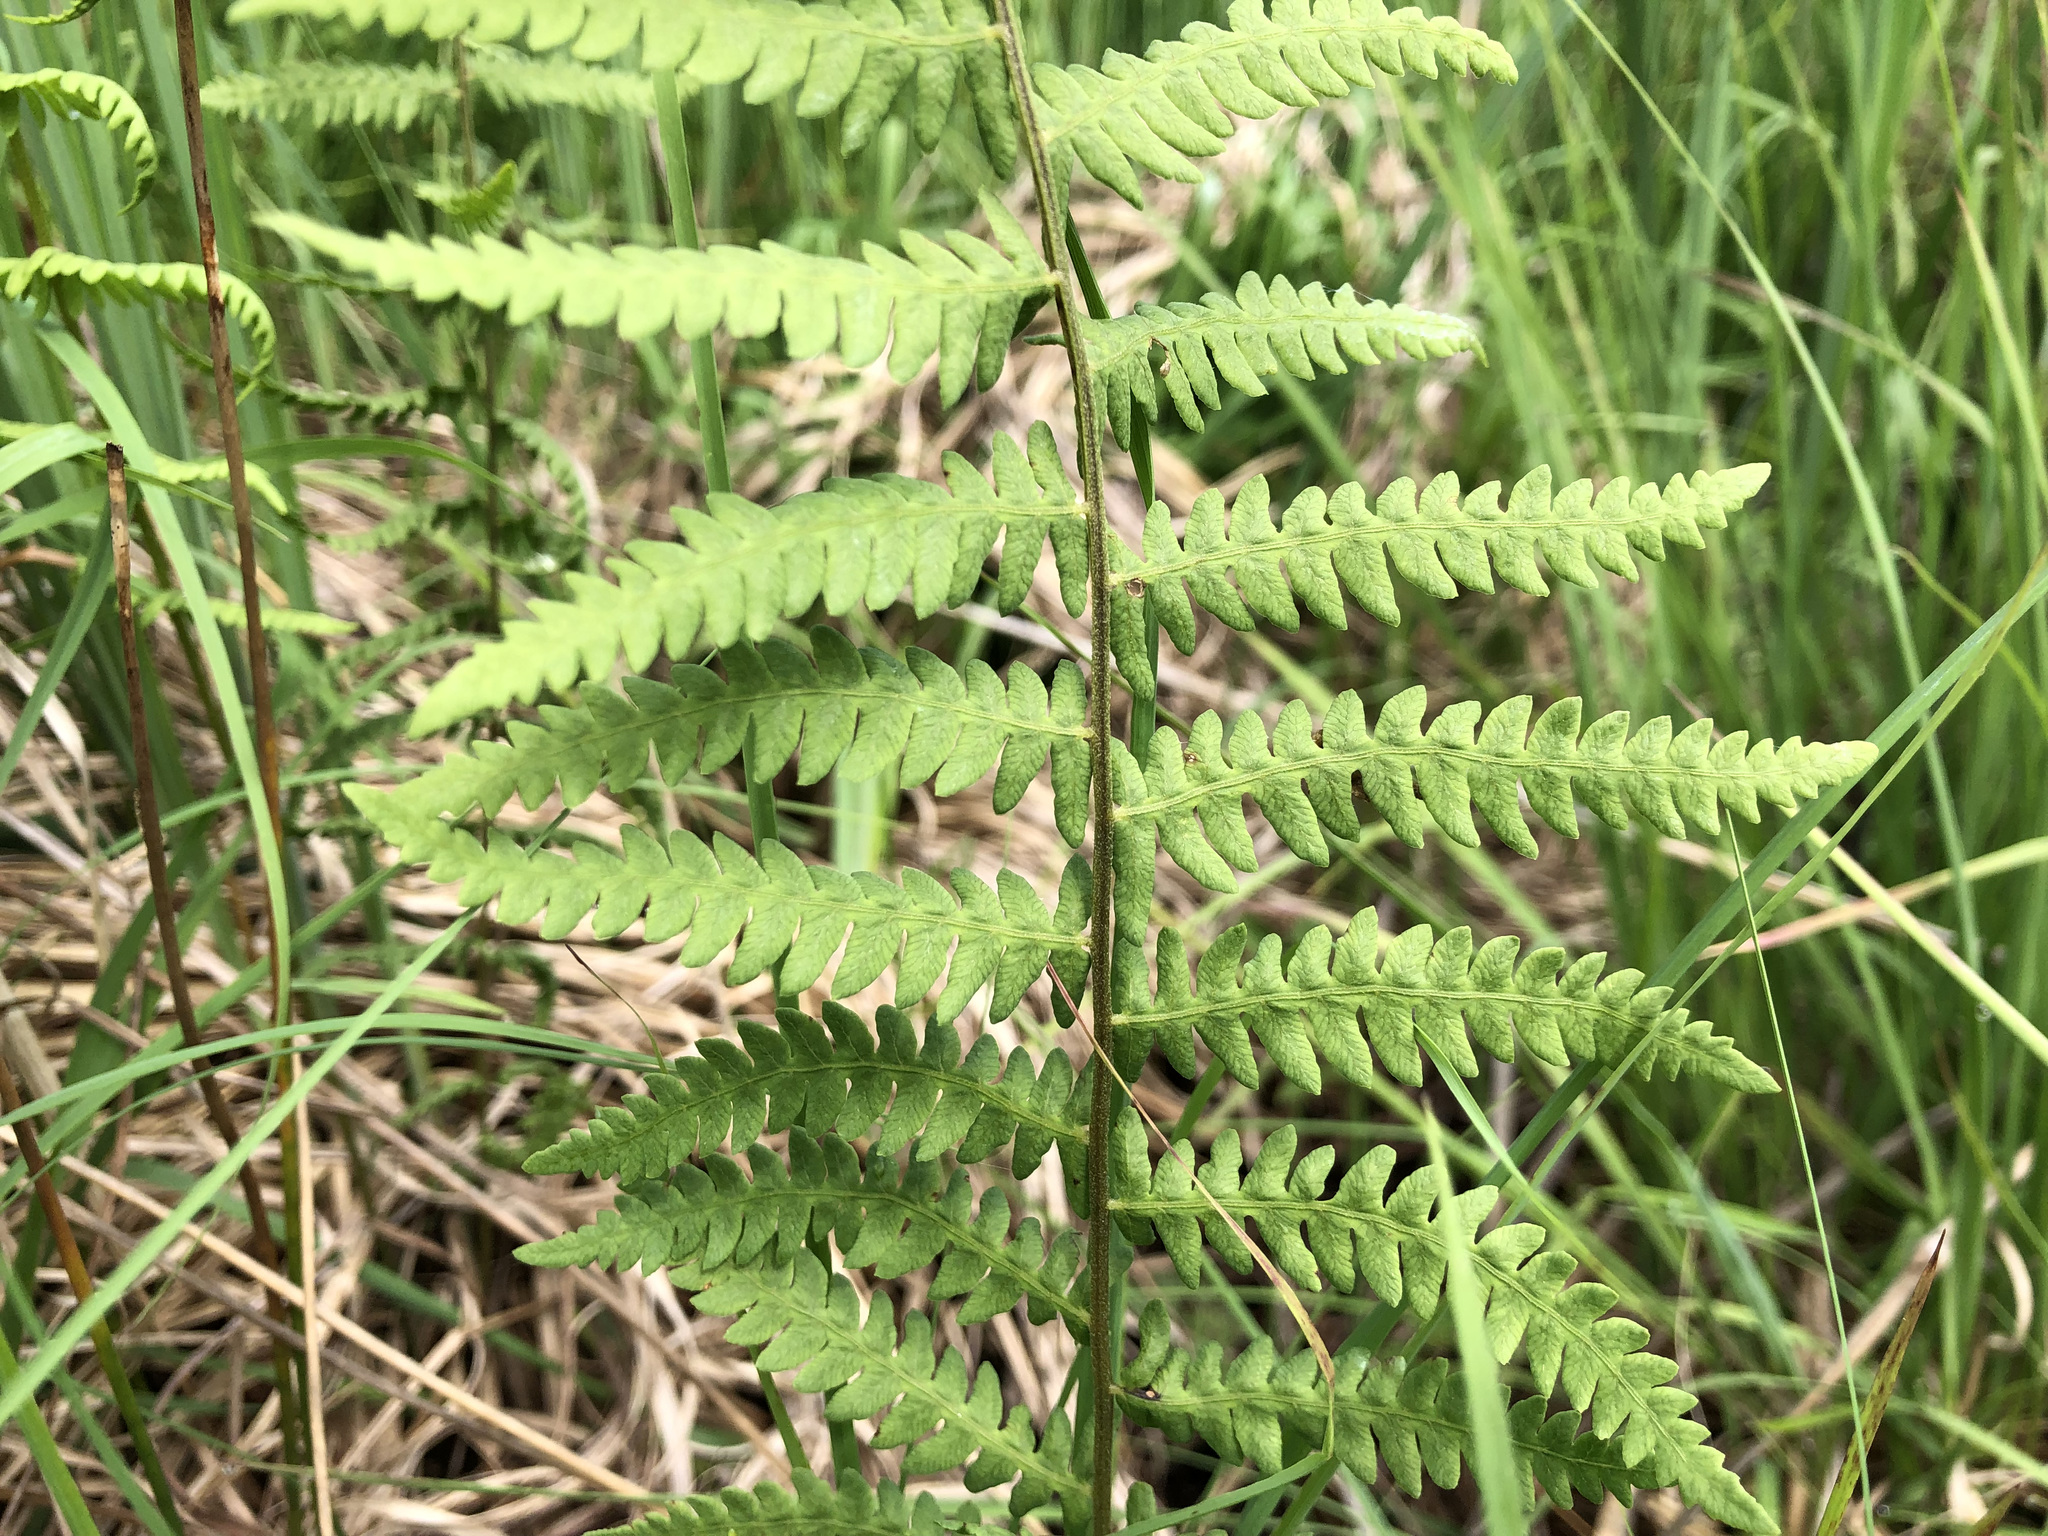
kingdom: Plantae
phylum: Tracheophyta
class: Polypodiopsida
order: Polypodiales
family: Thelypteridaceae
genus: Thelypteris
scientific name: Thelypteris palustris
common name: Marsh fern
